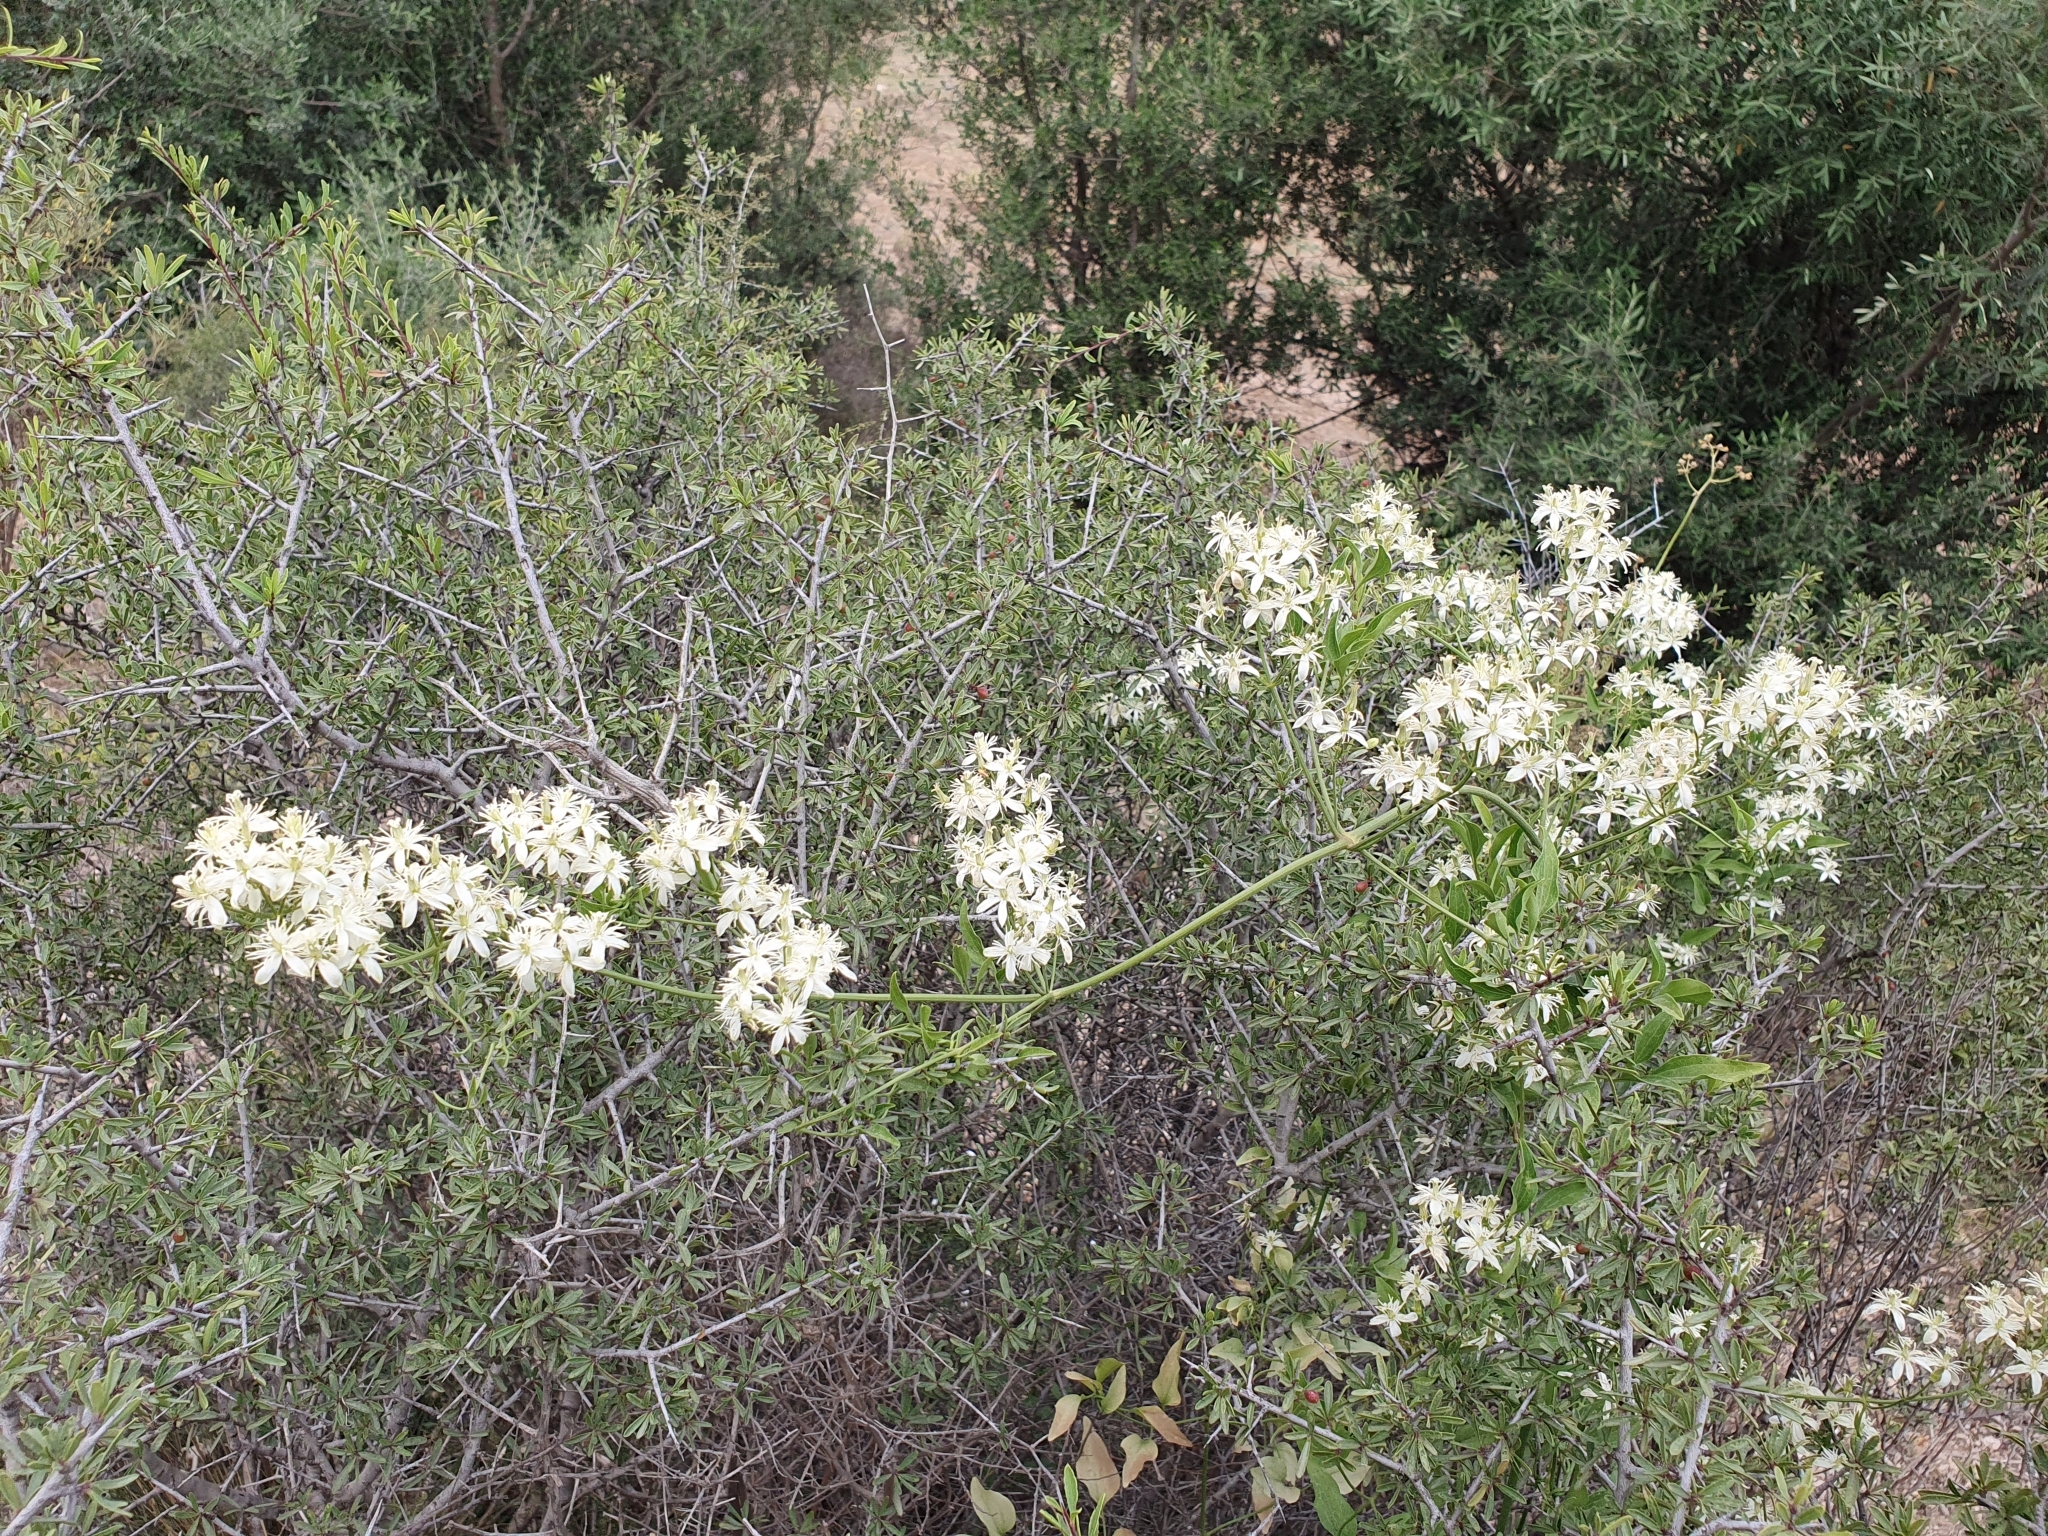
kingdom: Plantae
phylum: Tracheophyta
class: Magnoliopsida
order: Ranunculales
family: Ranunculaceae
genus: Clematis
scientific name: Clematis flammula
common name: Virgin's-bower
